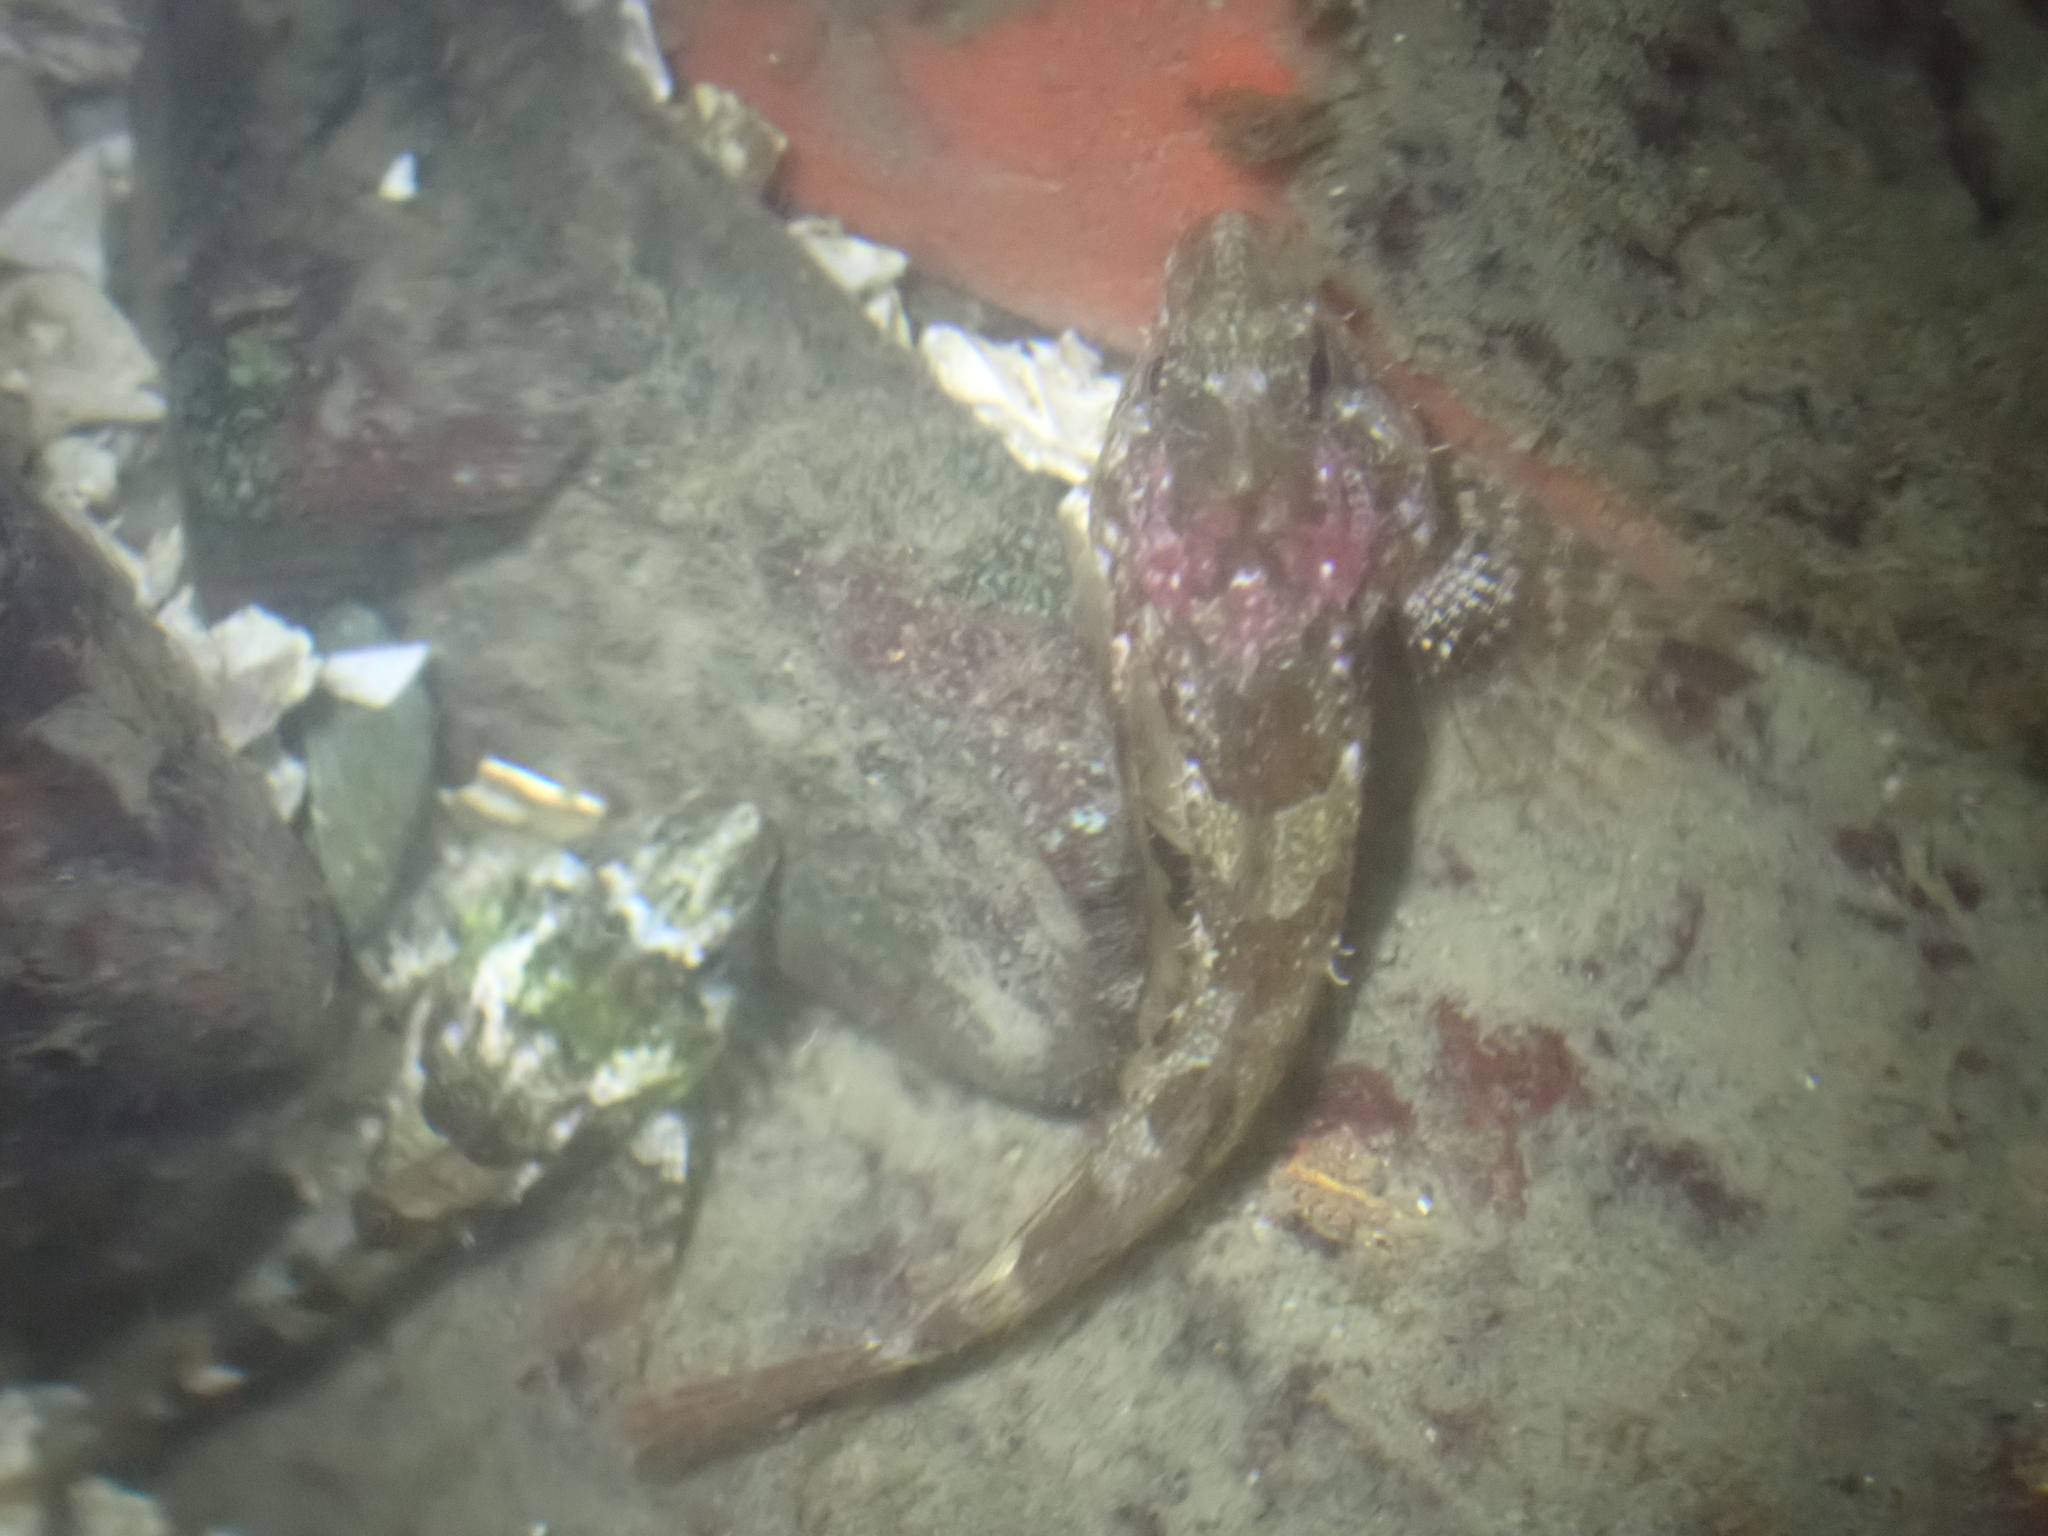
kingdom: Animalia
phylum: Chordata
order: Scorpaeniformes
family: Cottidae
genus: Oligocottus
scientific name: Oligocottus maculosus
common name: Tidepool sculpin
